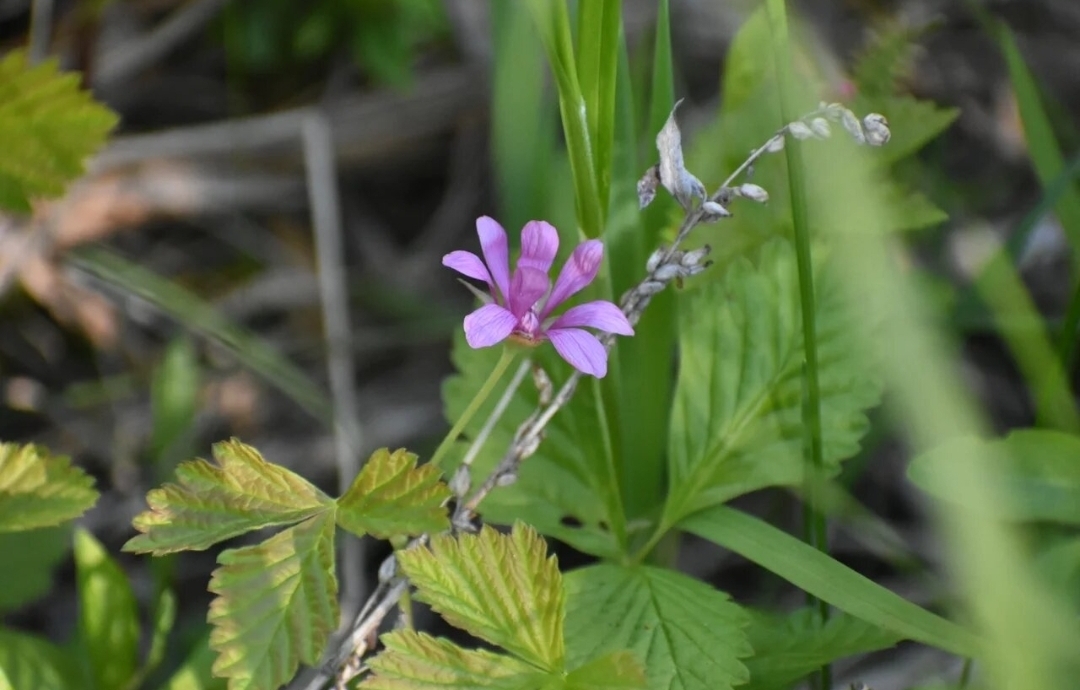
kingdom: Plantae
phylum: Tracheophyta
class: Magnoliopsida
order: Rosales
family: Rosaceae
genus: Rubus
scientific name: Rubus arcticus
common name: Arctic bramble
